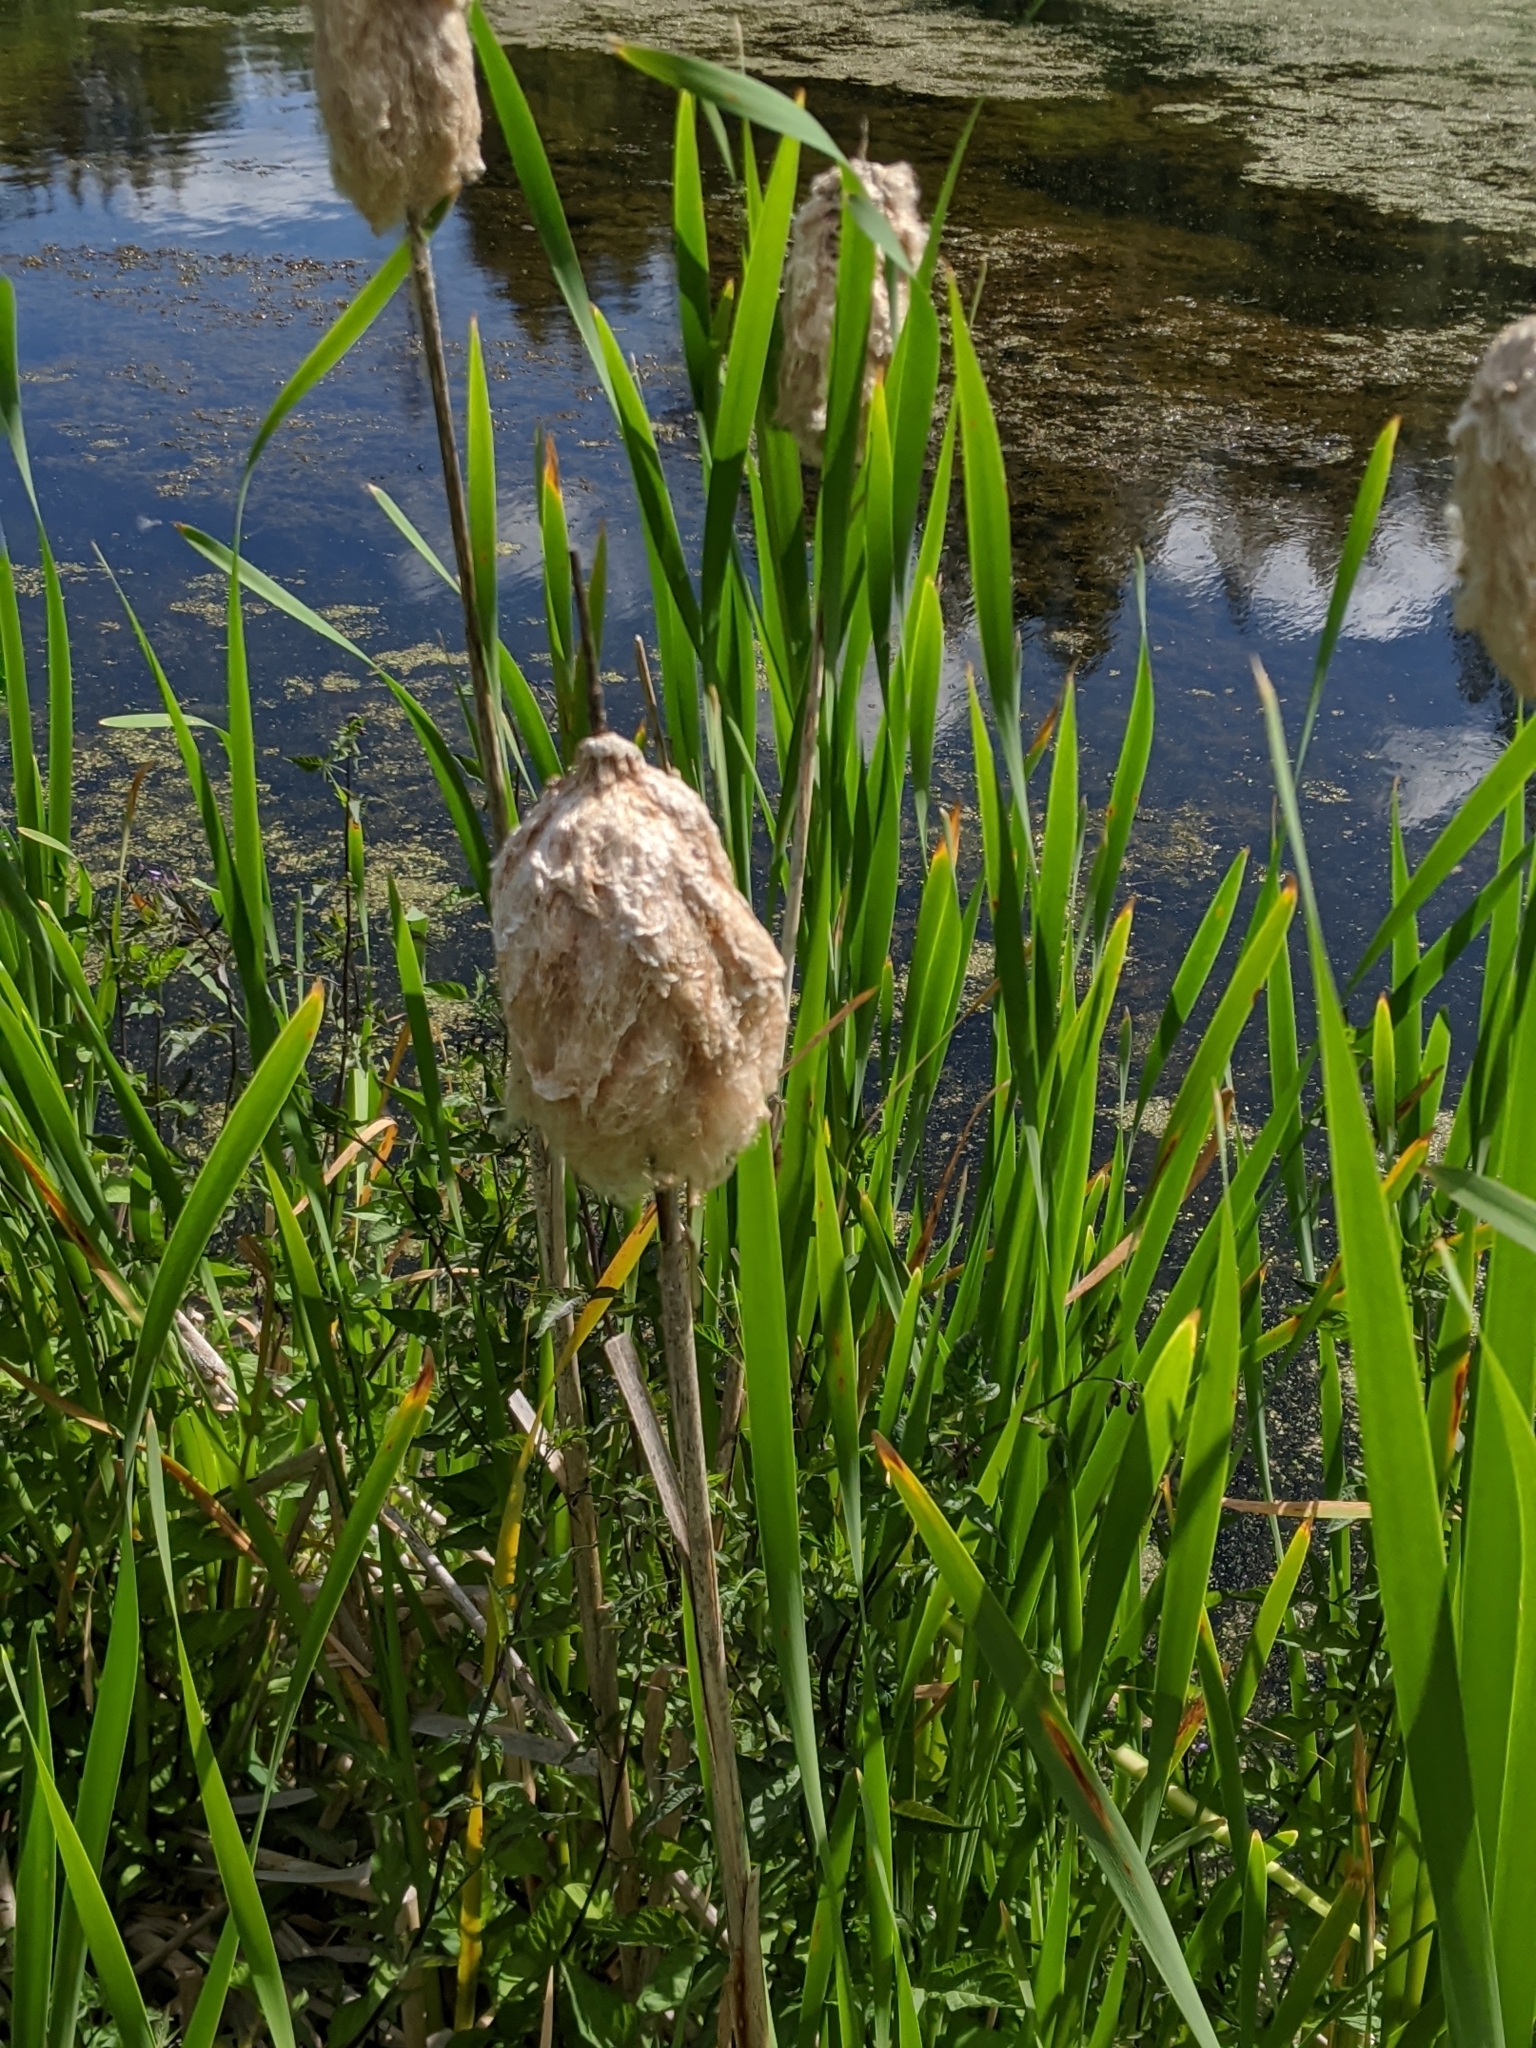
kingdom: Plantae
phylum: Tracheophyta
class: Liliopsida
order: Poales
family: Typhaceae
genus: Typha
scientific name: Typha latifolia
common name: Broadleaf cattail
